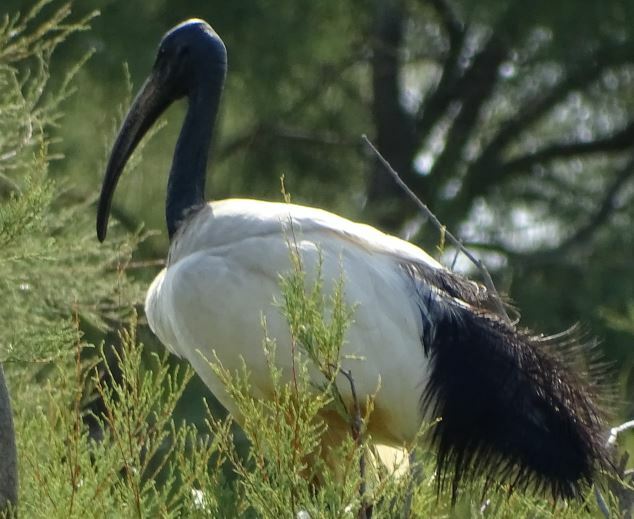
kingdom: Animalia
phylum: Chordata
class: Aves
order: Pelecaniformes
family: Threskiornithidae
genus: Threskiornis
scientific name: Threskiornis aethiopicus
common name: Sacred ibis
